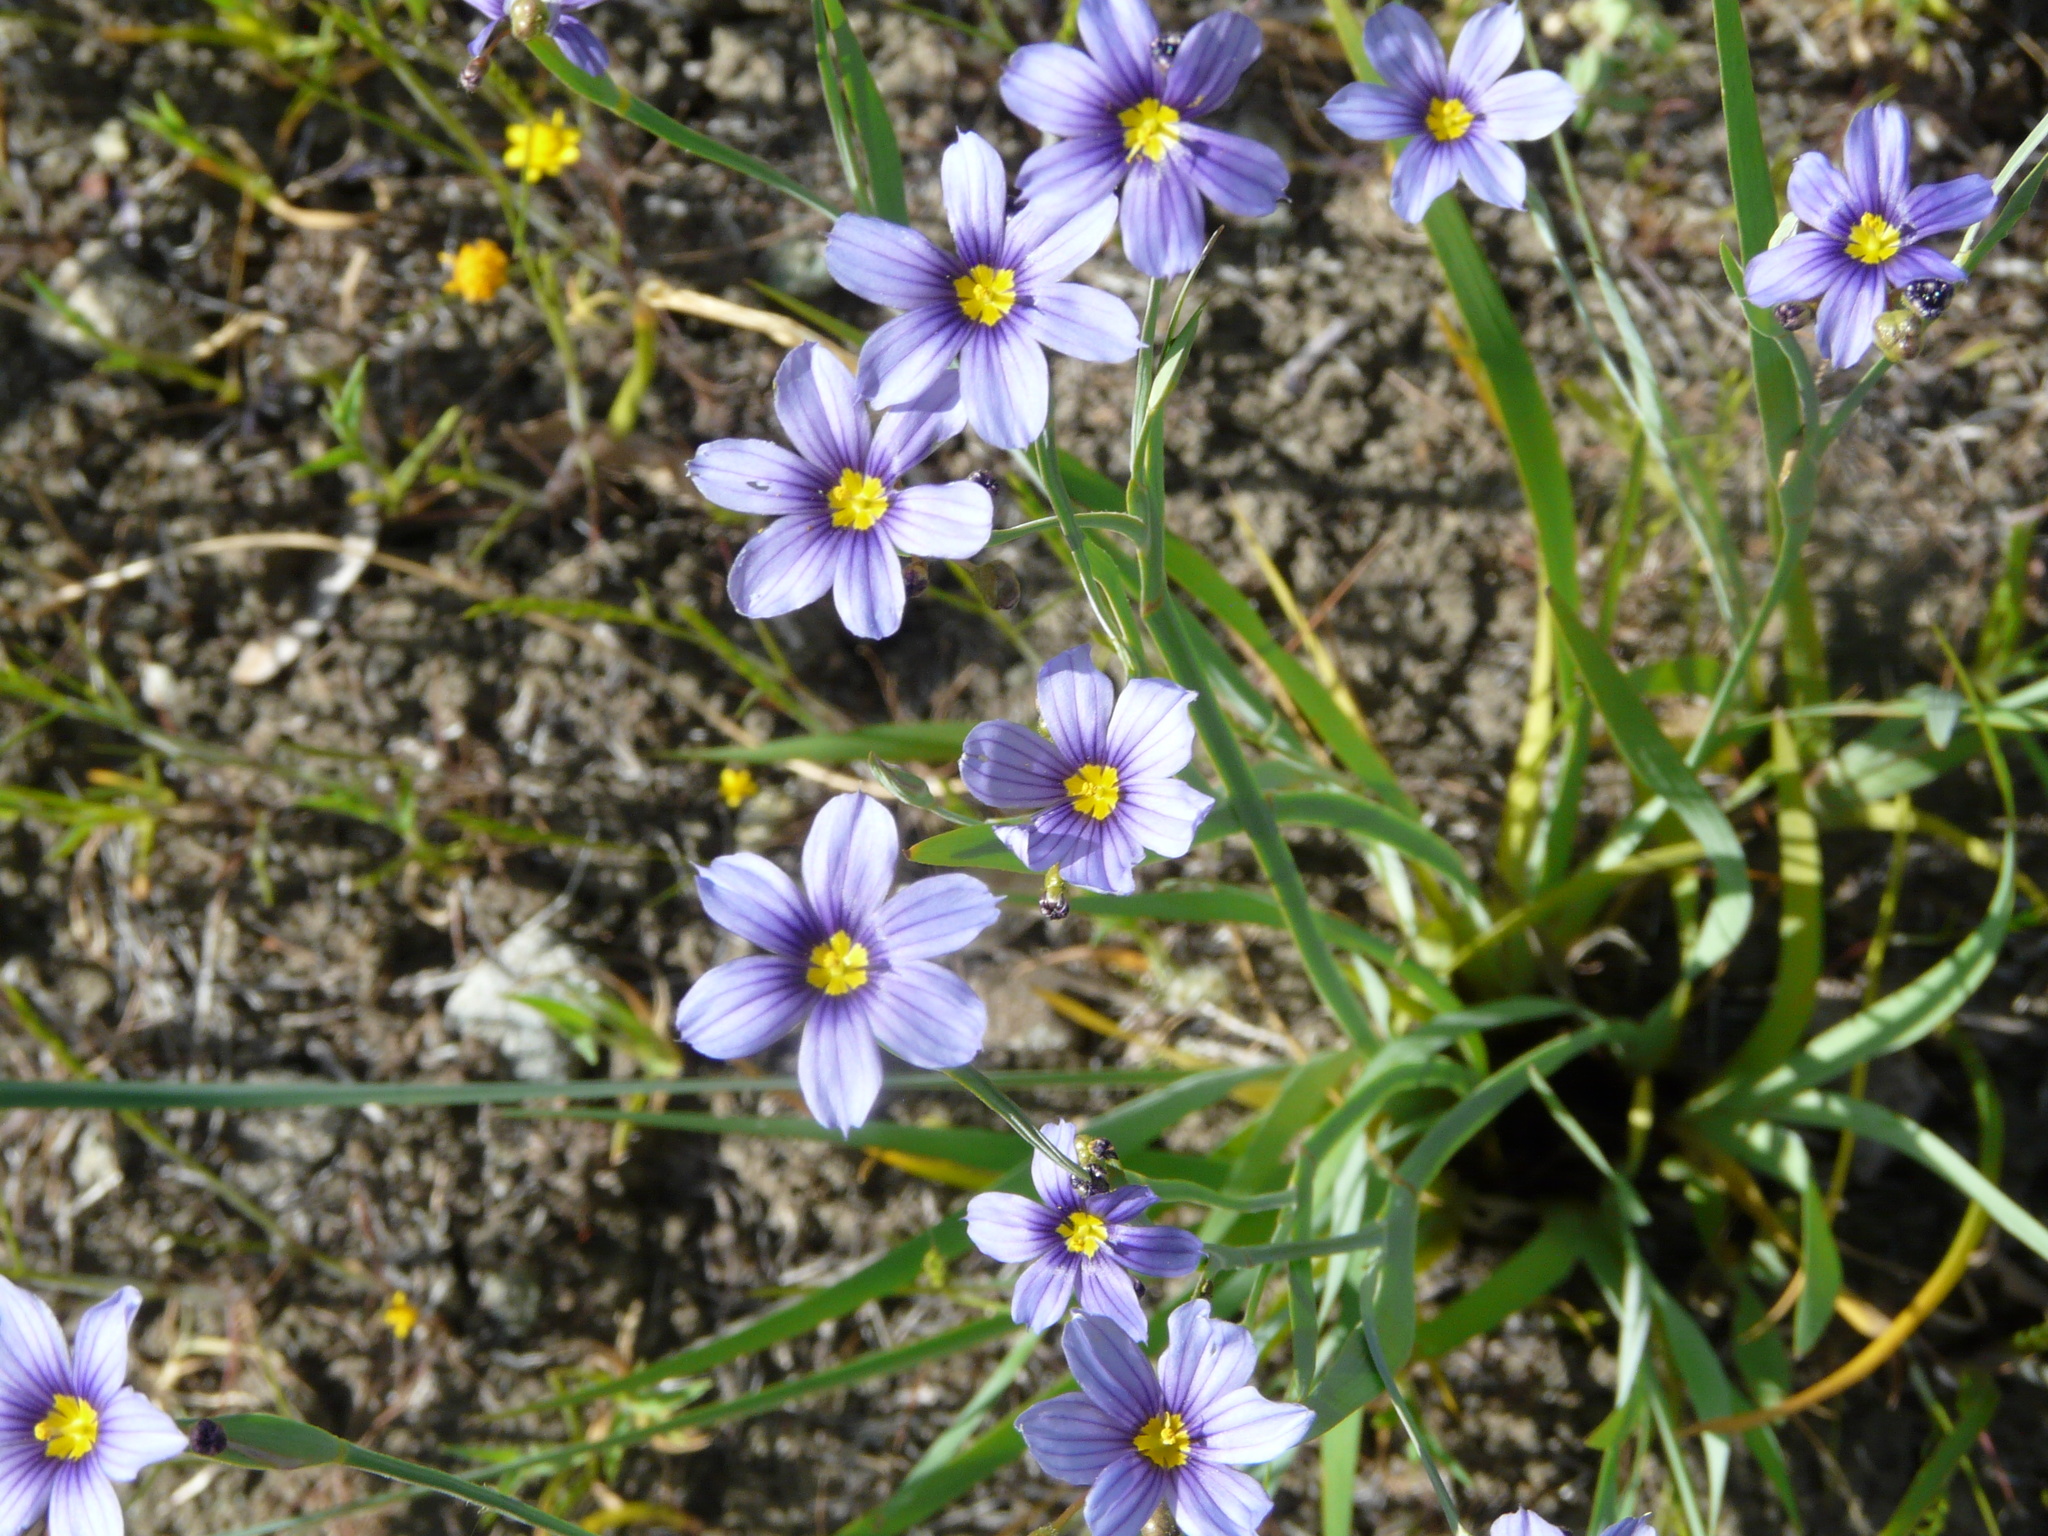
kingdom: Plantae
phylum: Tracheophyta
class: Liliopsida
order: Asparagales
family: Iridaceae
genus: Sisyrinchium
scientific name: Sisyrinchium bellum
